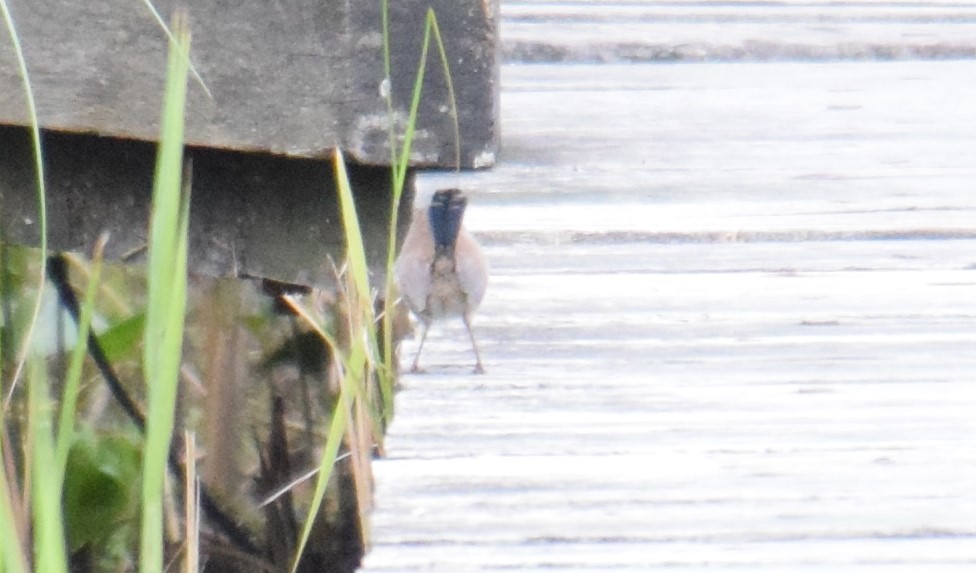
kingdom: Animalia
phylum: Chordata
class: Aves
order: Passeriformes
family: Maluridae
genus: Malurus
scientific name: Malurus cyaneus
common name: Superb fairywren
